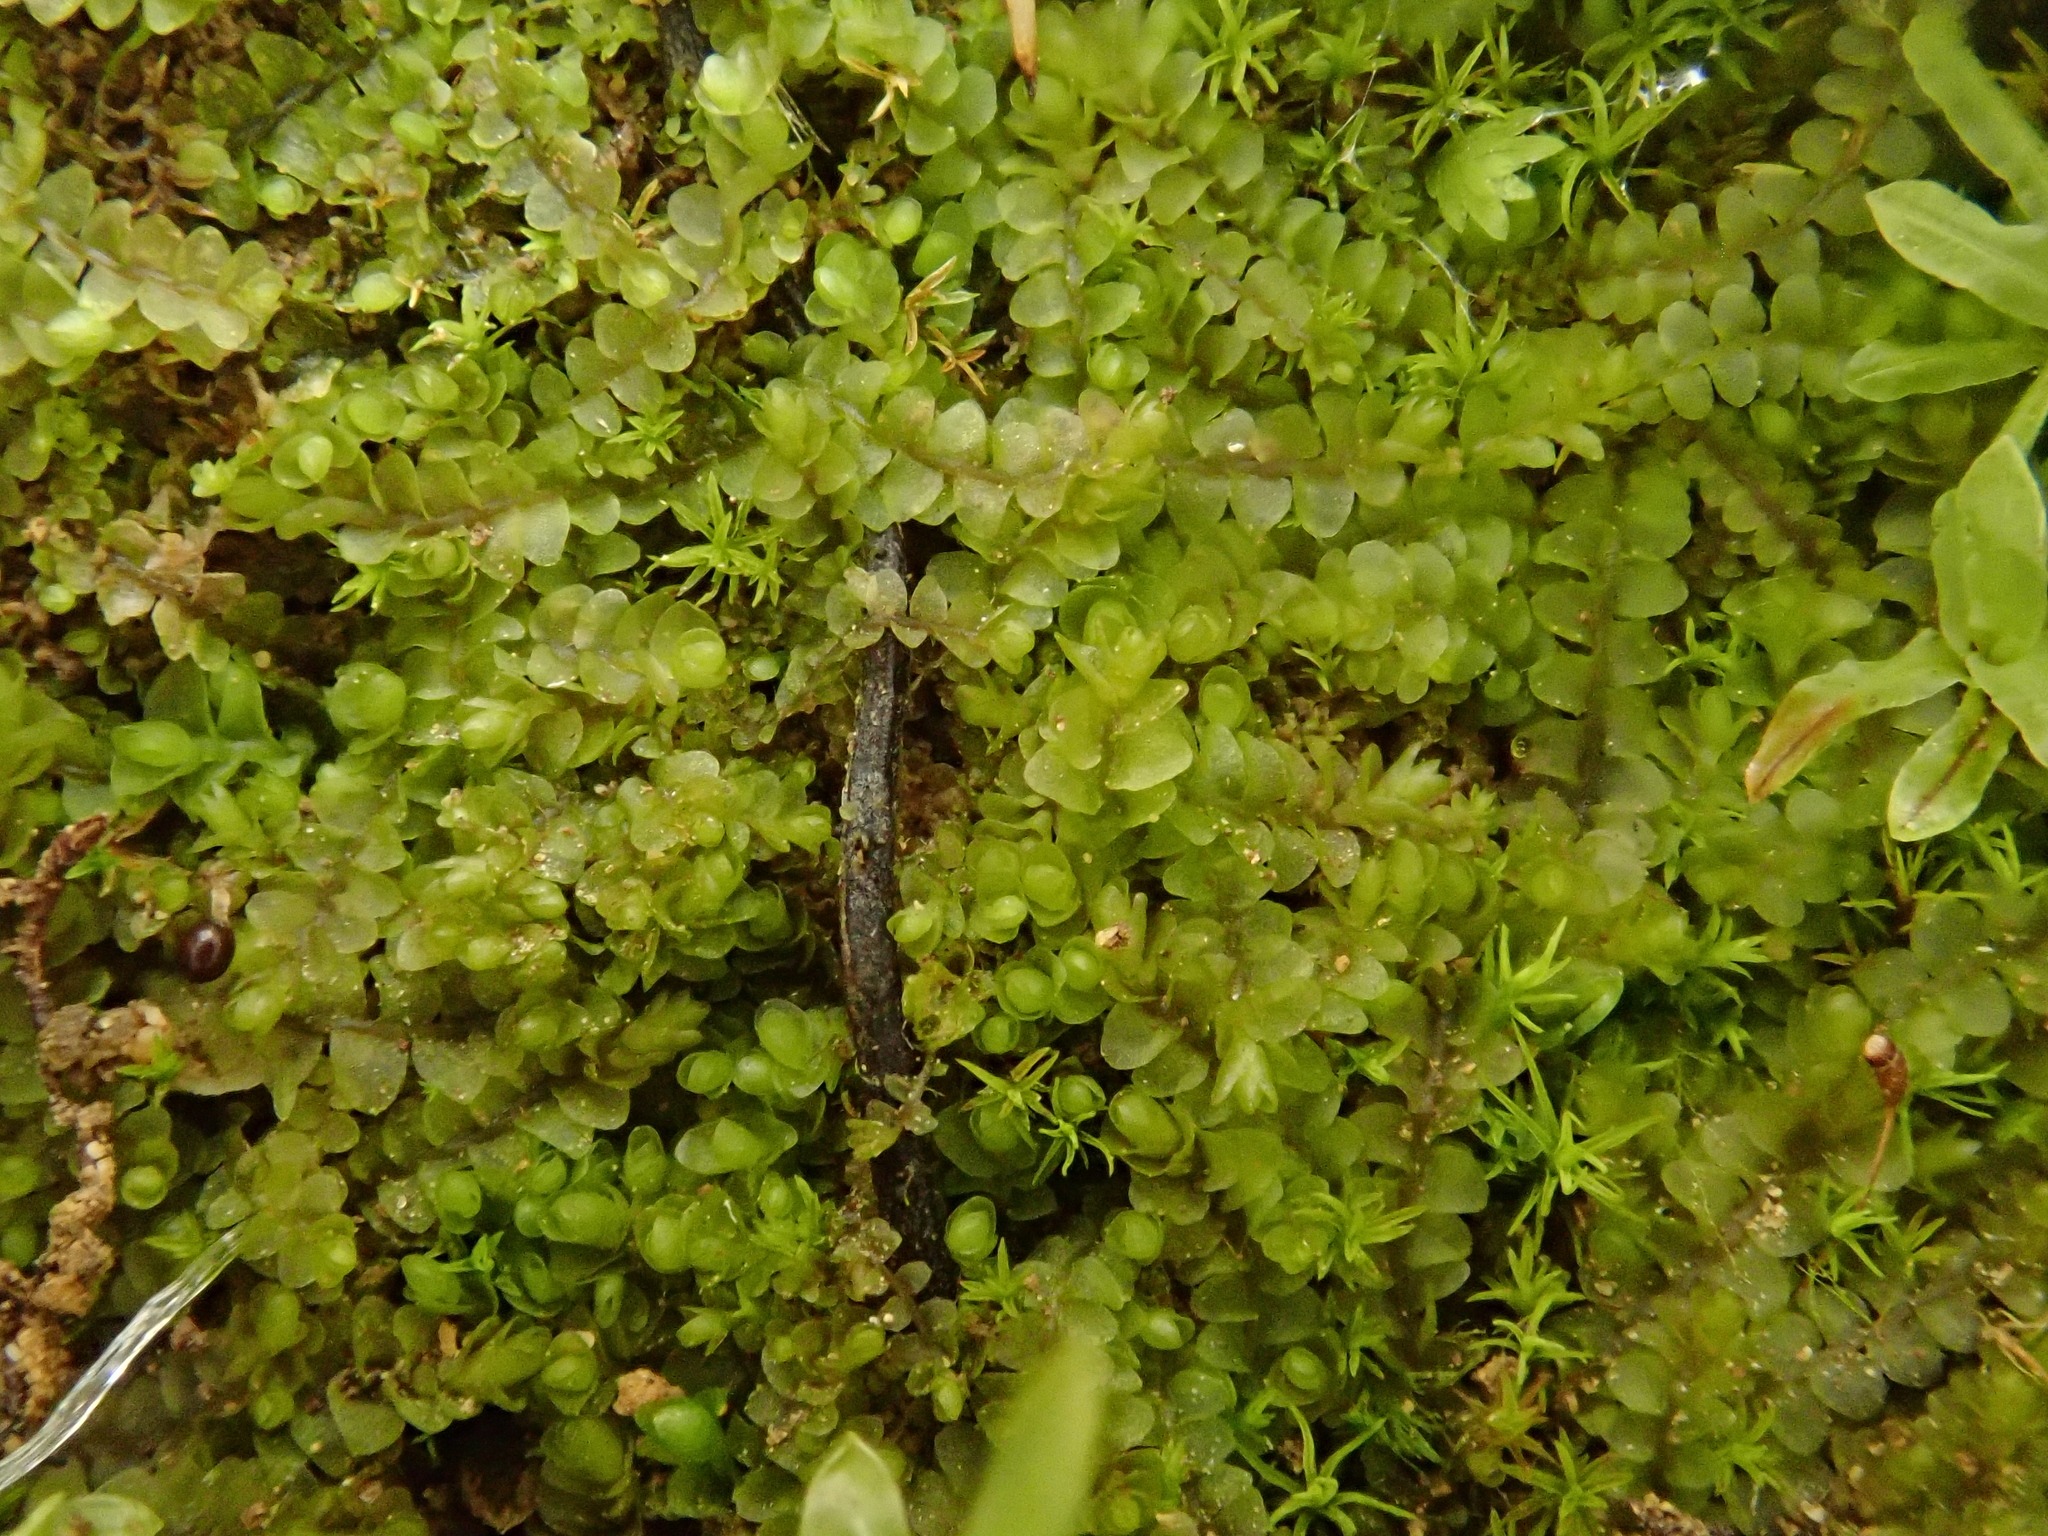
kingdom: Plantae
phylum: Marchantiophyta
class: Jungermanniopsida
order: Jungermanniales
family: Jungermanniaceae
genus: Jungermannia
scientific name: Jungermannia atrovirens
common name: Dark-green flapwort
